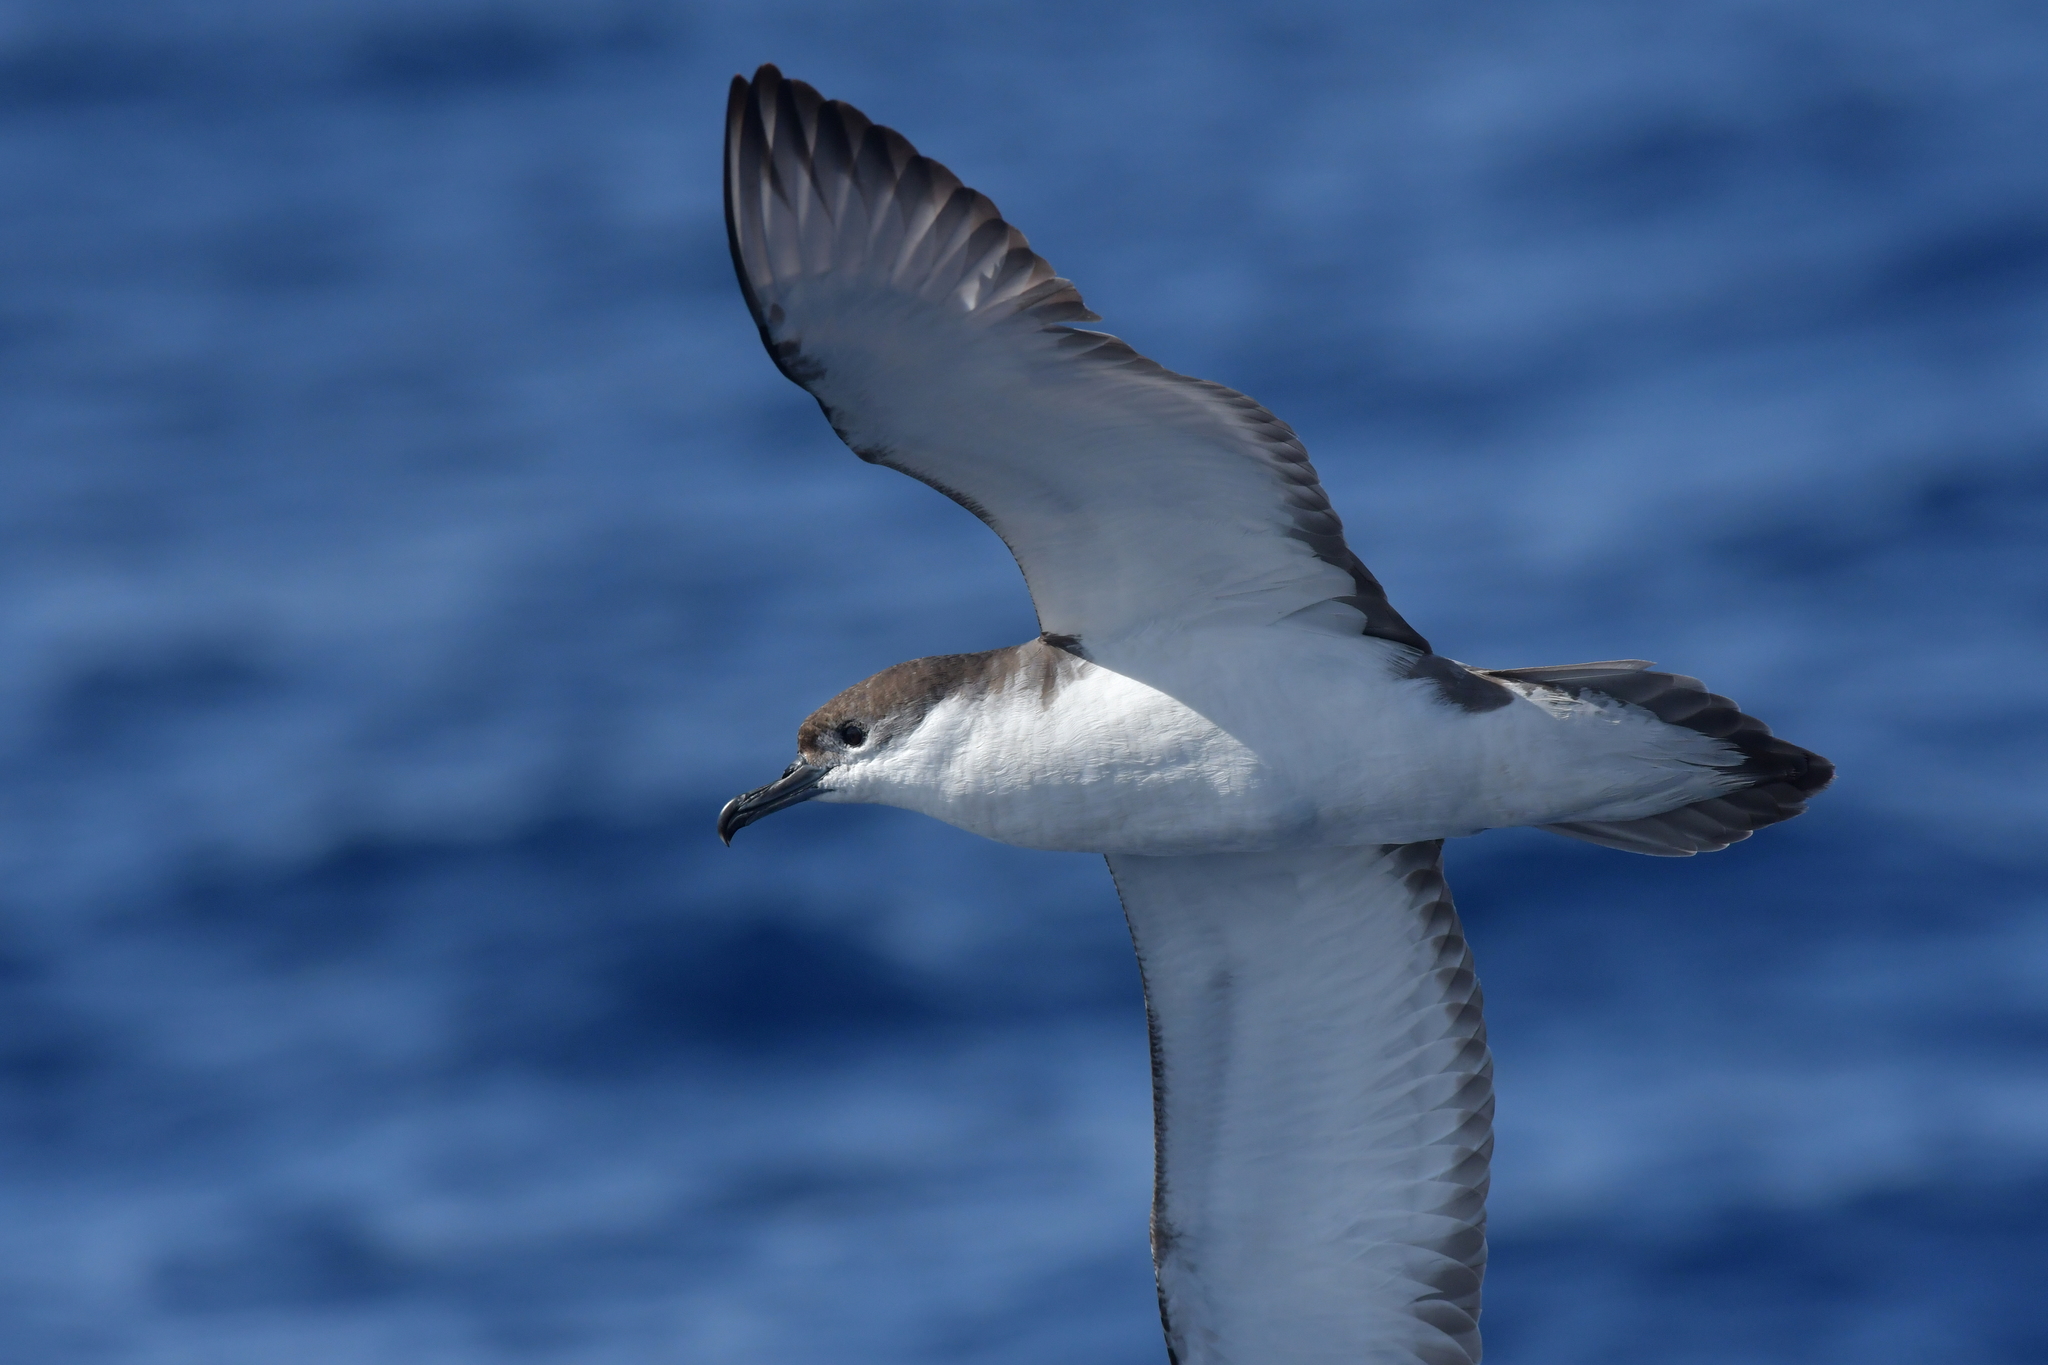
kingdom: Animalia
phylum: Chordata
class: Aves
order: Procellariiformes
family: Procellariidae
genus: Puffinus
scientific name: Puffinus bulleri
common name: Buller's shearwater
